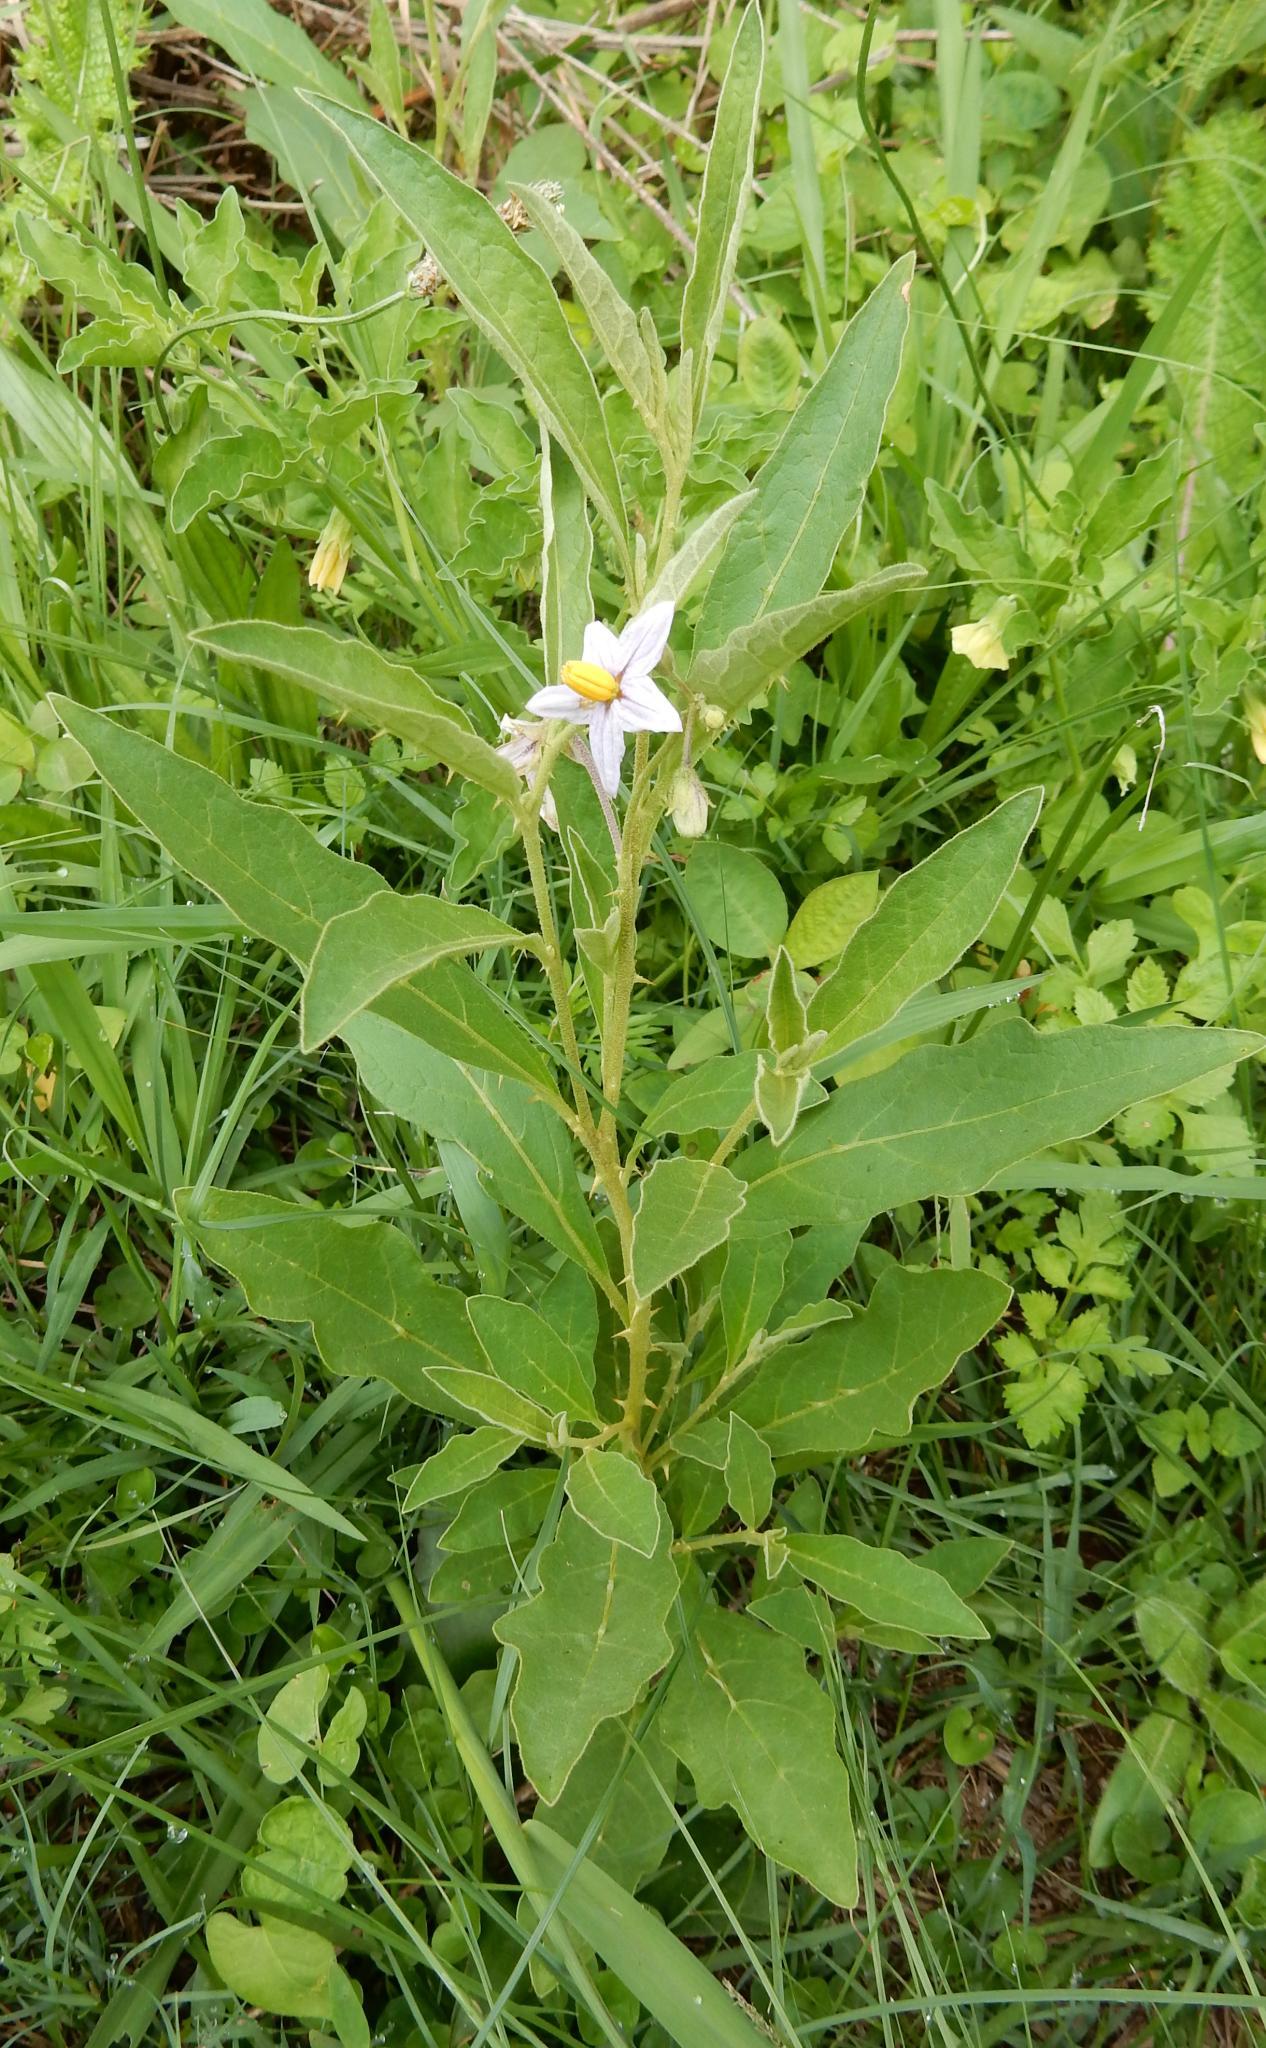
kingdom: Plantae
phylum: Tracheophyta
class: Magnoliopsida
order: Solanales
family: Solanaceae
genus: Solanum
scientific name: Solanum campylacanthum
